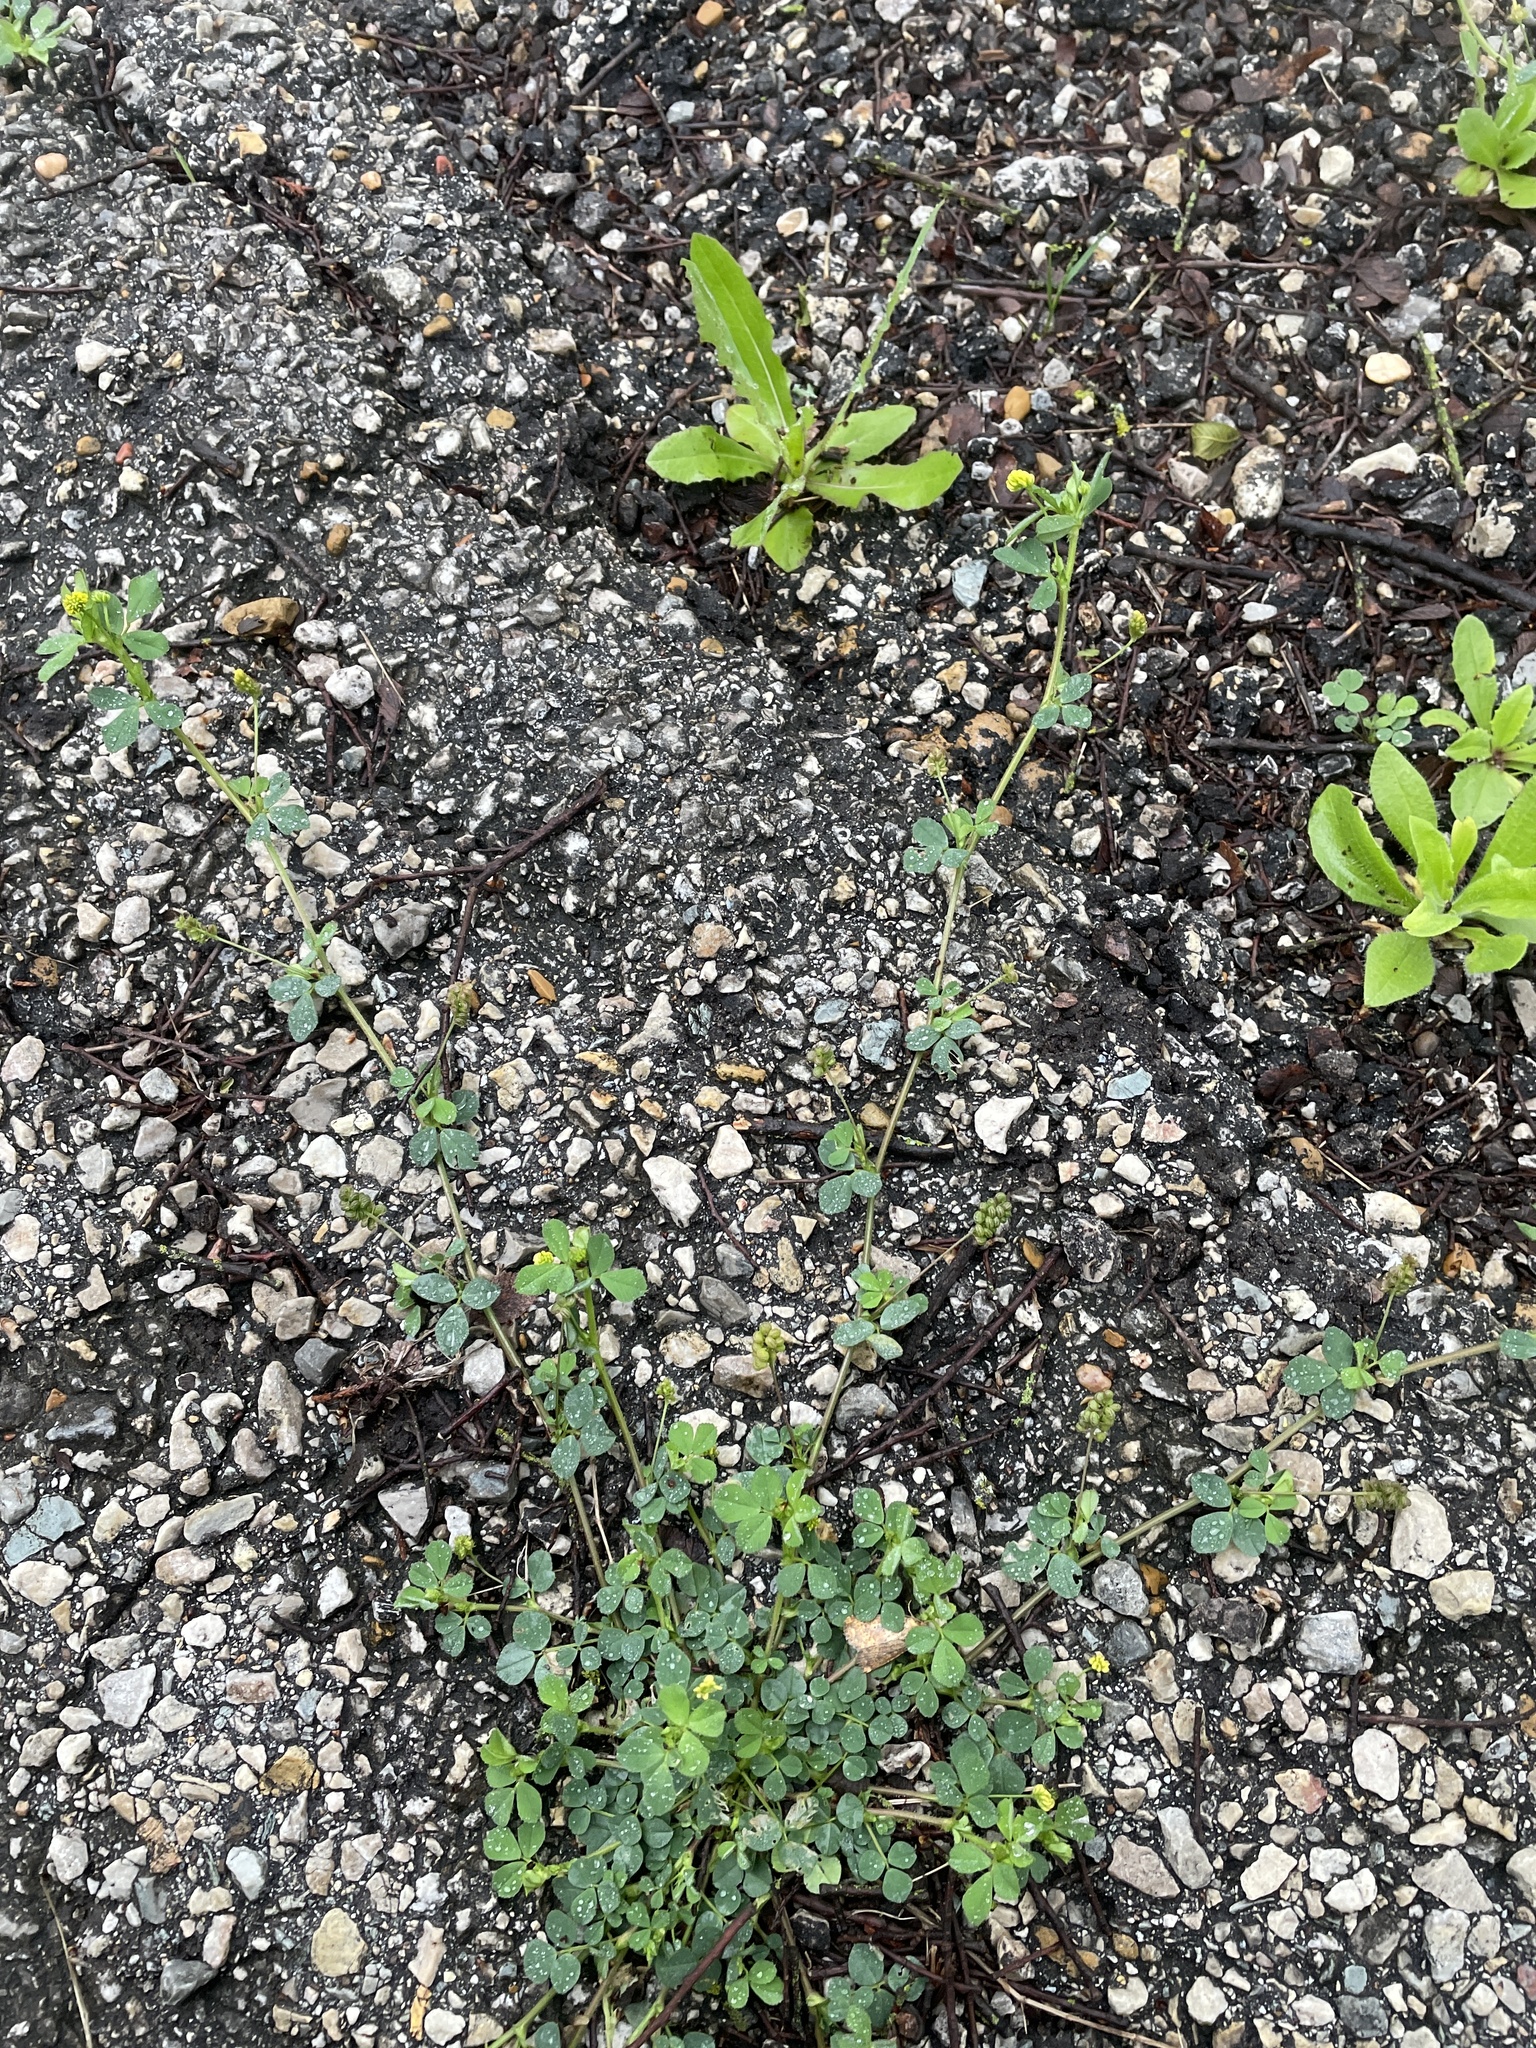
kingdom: Plantae
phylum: Tracheophyta
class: Magnoliopsida
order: Fabales
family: Fabaceae
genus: Medicago
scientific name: Medicago lupulina
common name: Black medick
